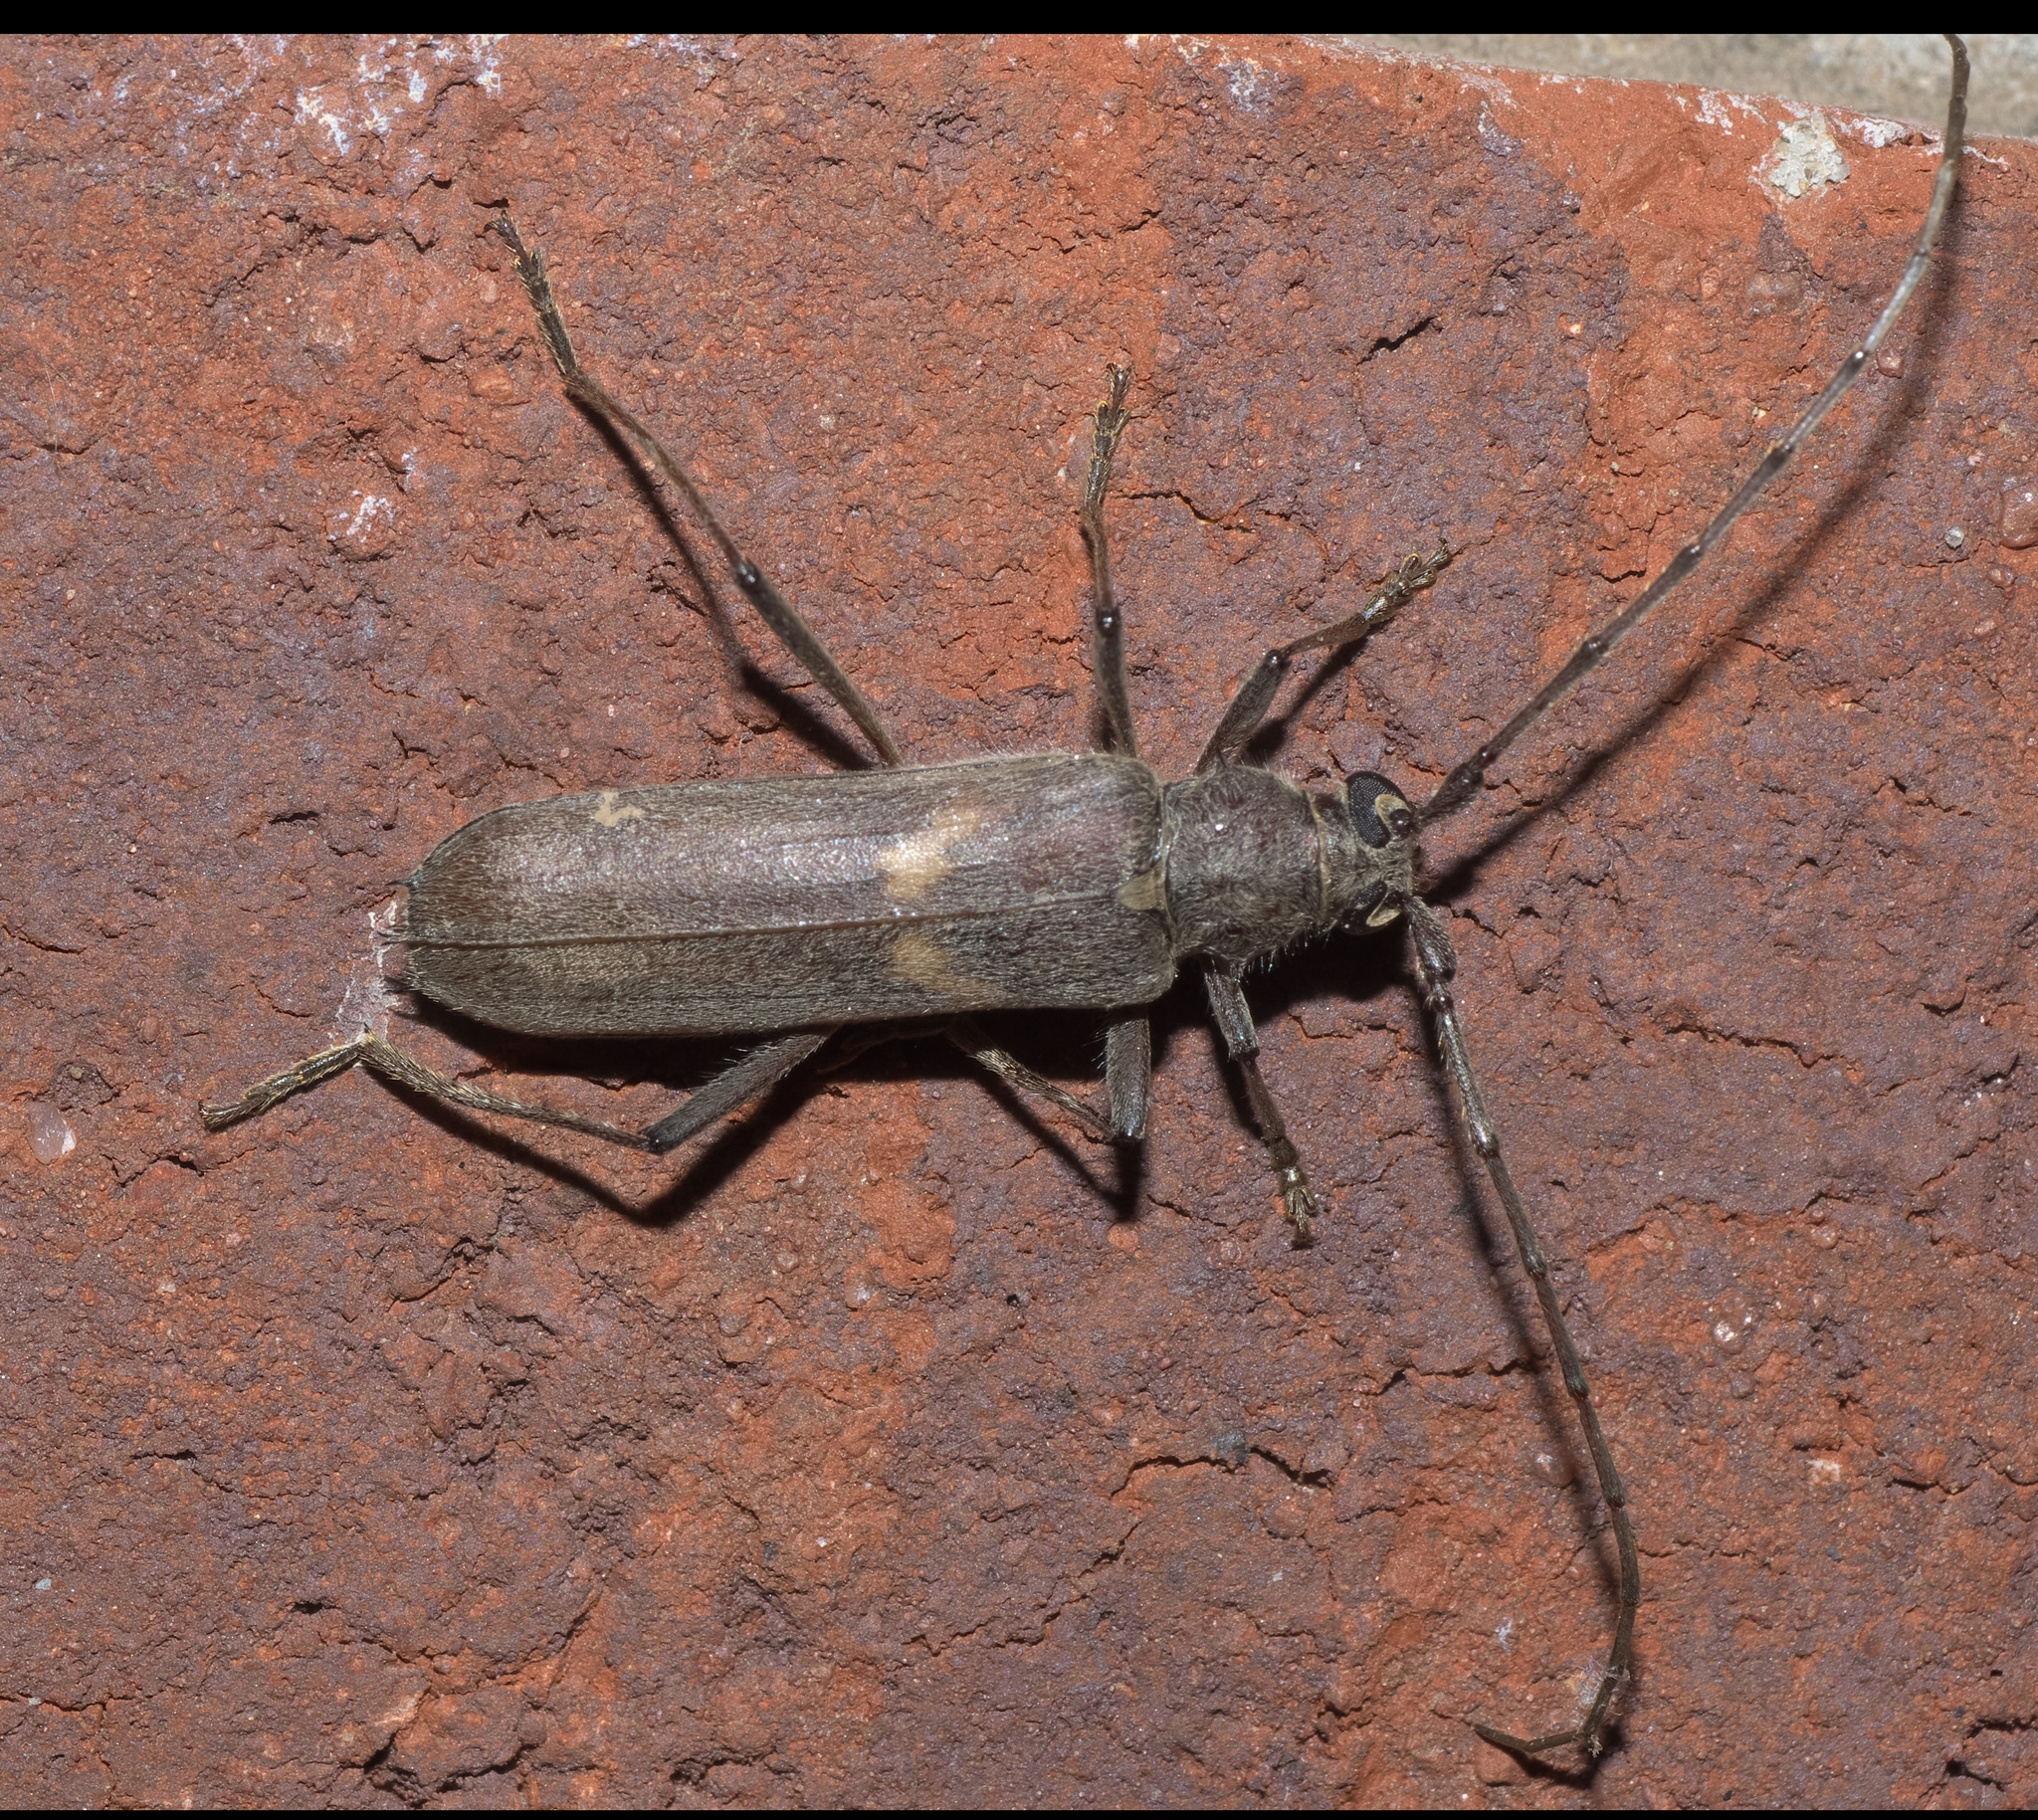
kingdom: Animalia
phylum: Arthropoda
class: Insecta
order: Coleoptera
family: Cerambycidae
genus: Knulliana
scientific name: Knulliana cincta
